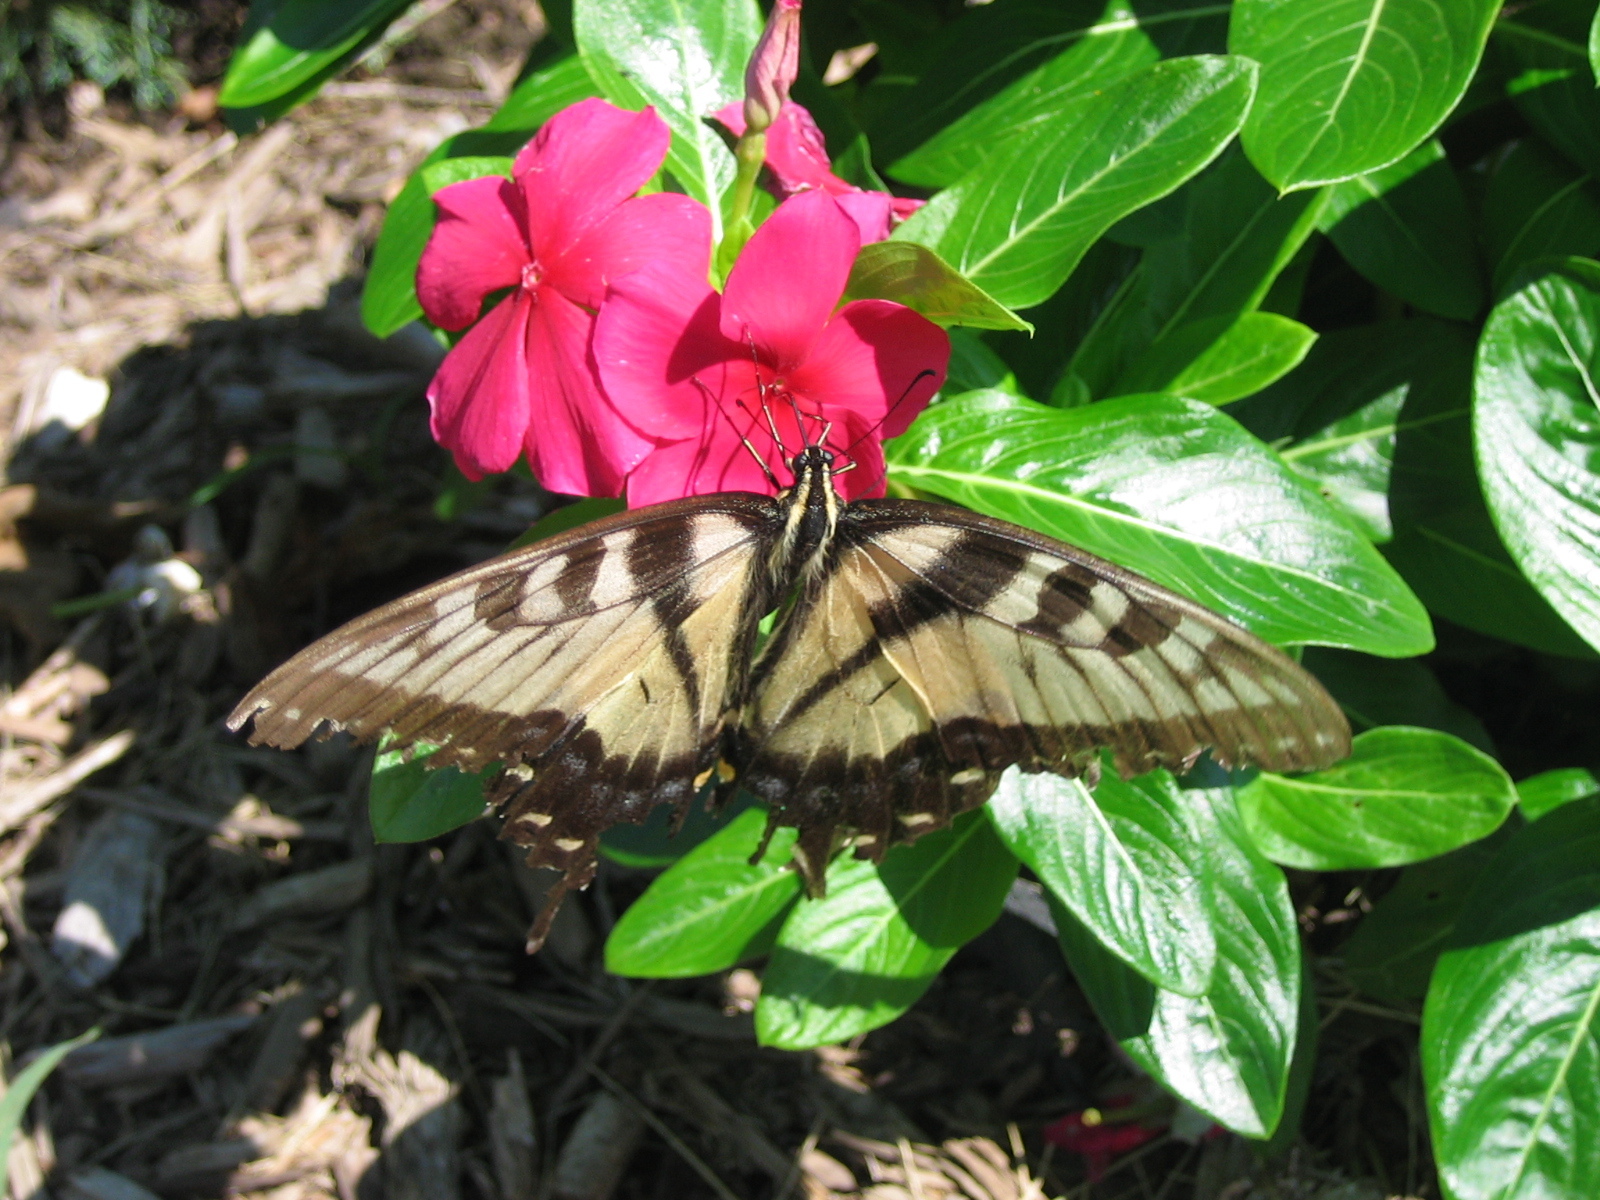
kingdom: Animalia
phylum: Arthropoda
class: Insecta
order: Lepidoptera
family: Papilionidae
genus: Papilio
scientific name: Papilio glaucus
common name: Tiger swallowtail
